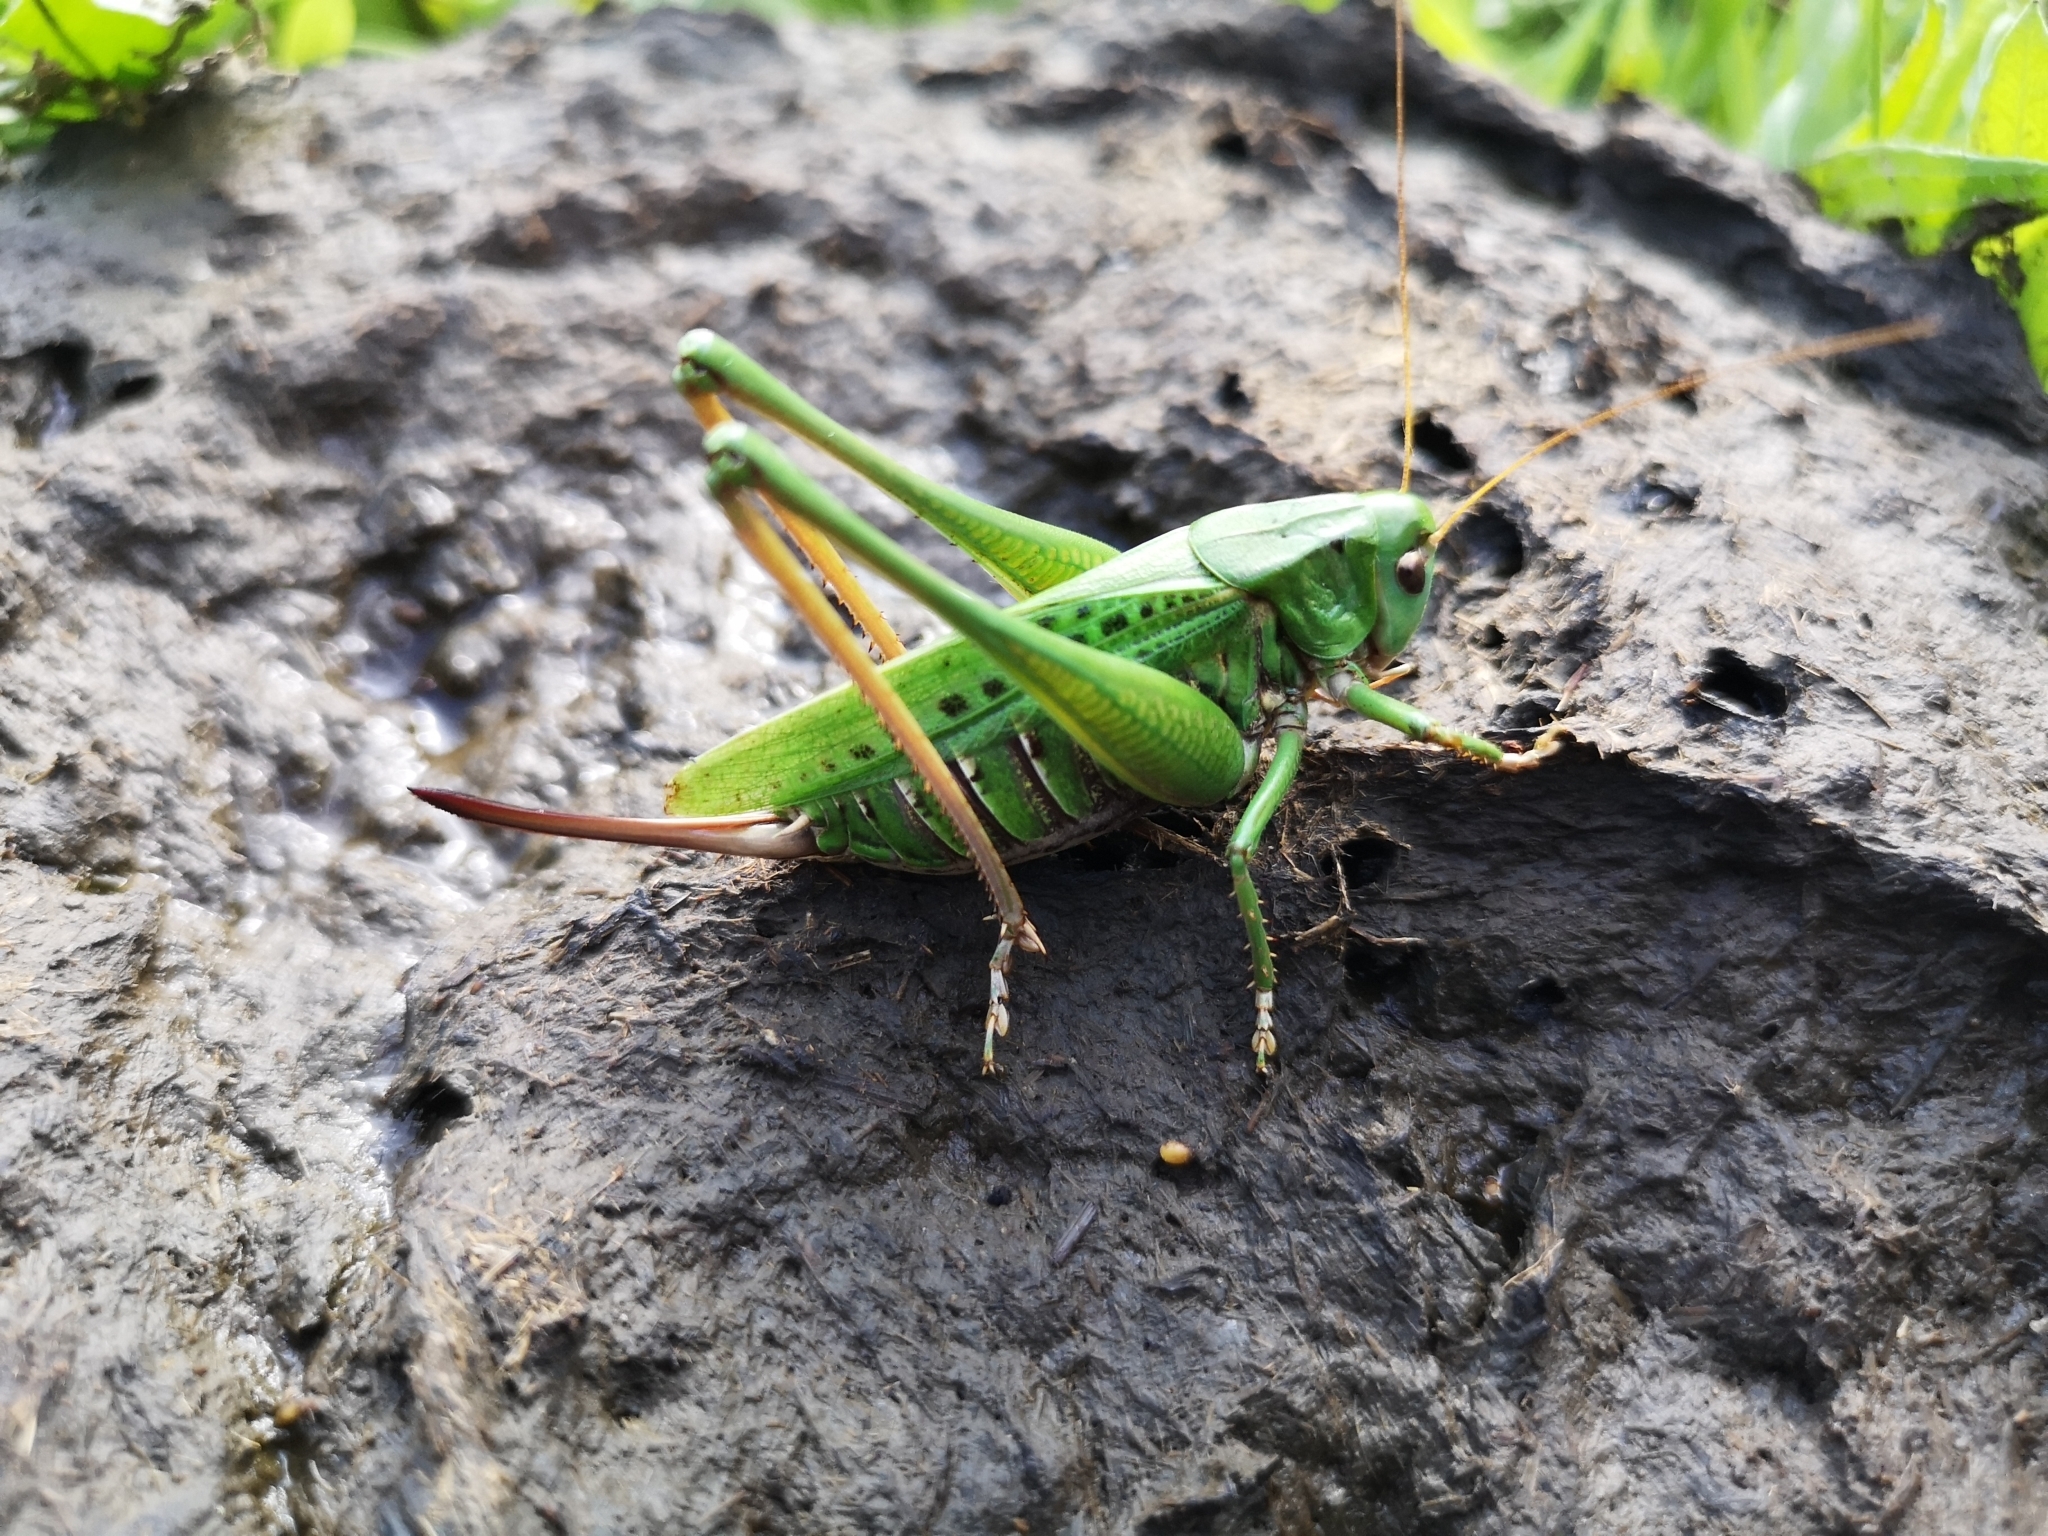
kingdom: Animalia
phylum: Arthropoda
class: Insecta
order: Orthoptera
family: Tettigoniidae
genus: Decticus
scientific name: Decticus verrucivorus
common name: Wart-biter
